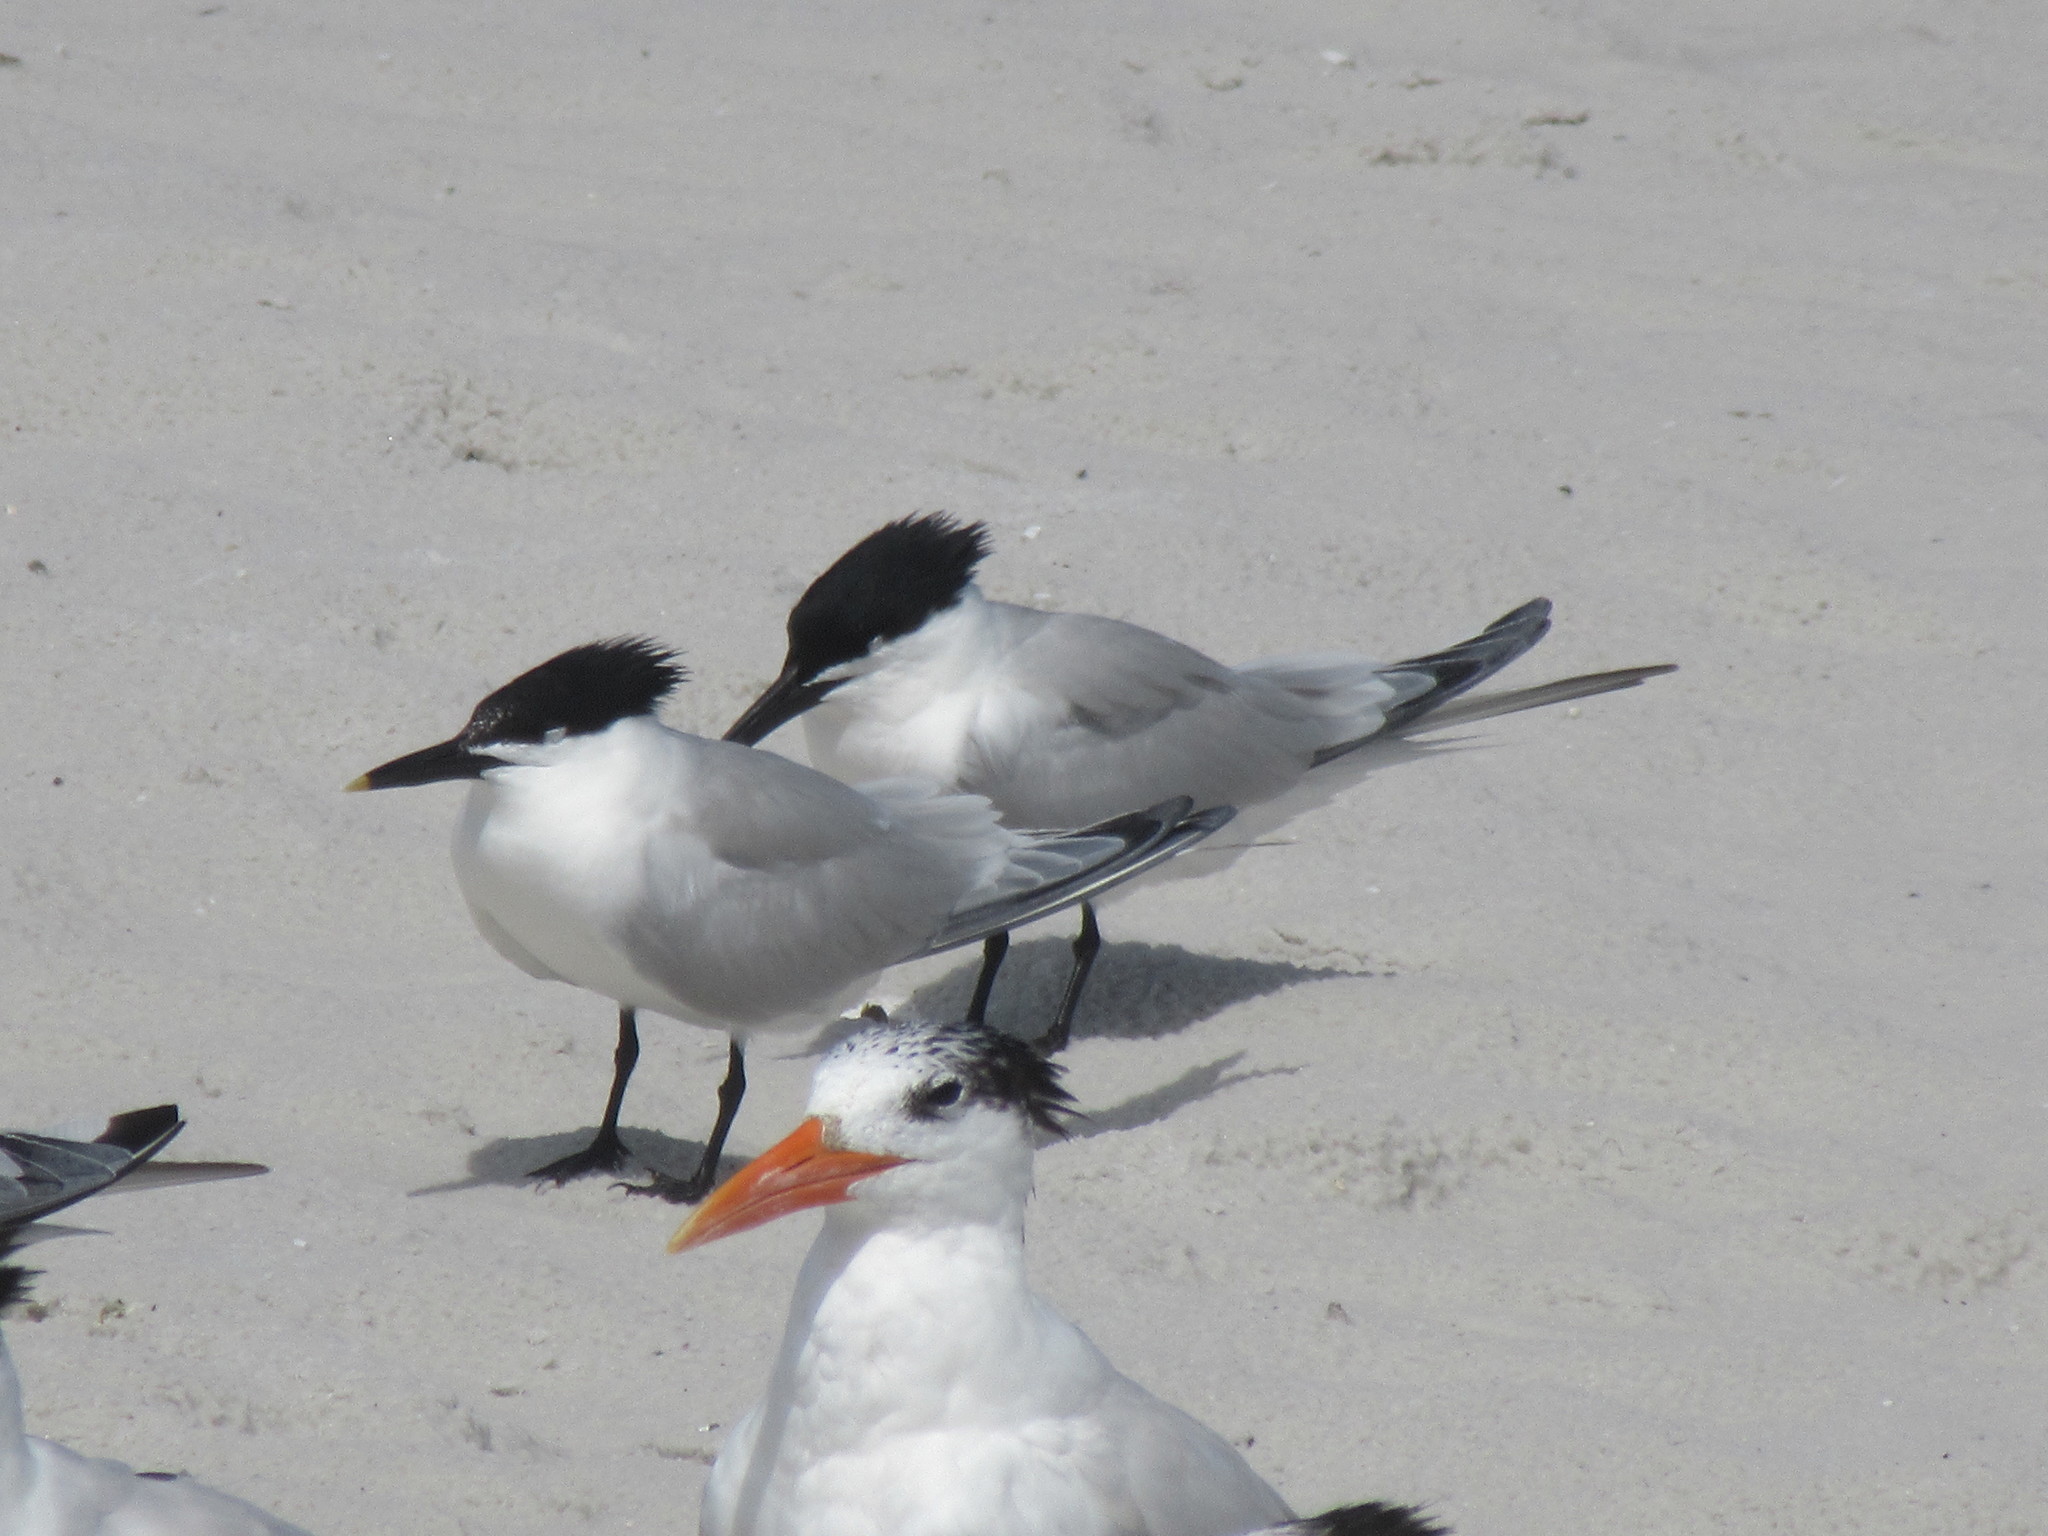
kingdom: Animalia
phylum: Chordata
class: Aves
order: Charadriiformes
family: Laridae
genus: Thalasseus
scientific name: Thalasseus sandvicensis
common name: Sandwich tern
